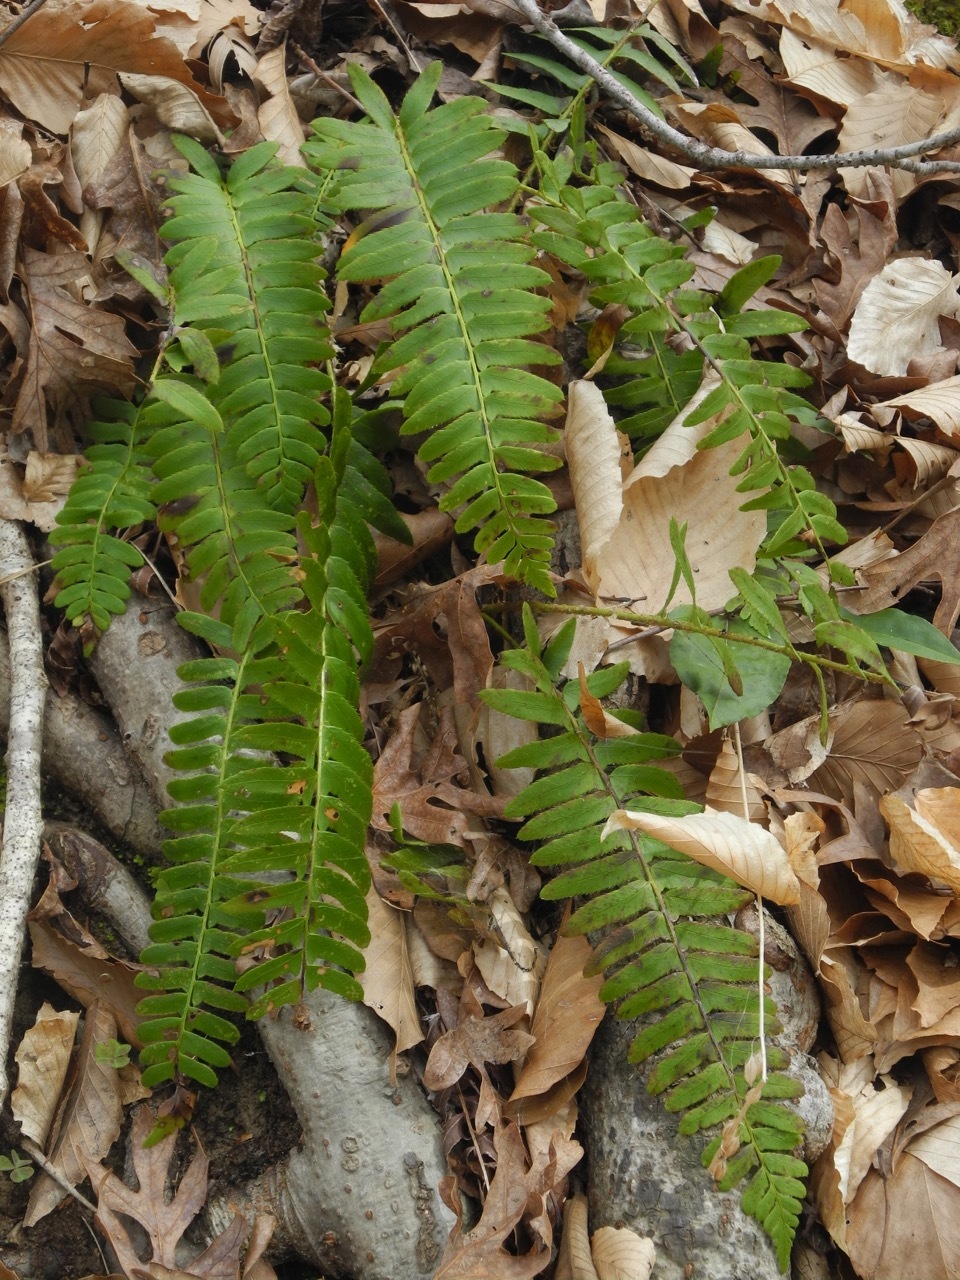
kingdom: Plantae
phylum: Tracheophyta
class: Polypodiopsida
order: Polypodiales
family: Dryopteridaceae
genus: Polystichum
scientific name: Polystichum acrostichoides
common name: Christmas fern
